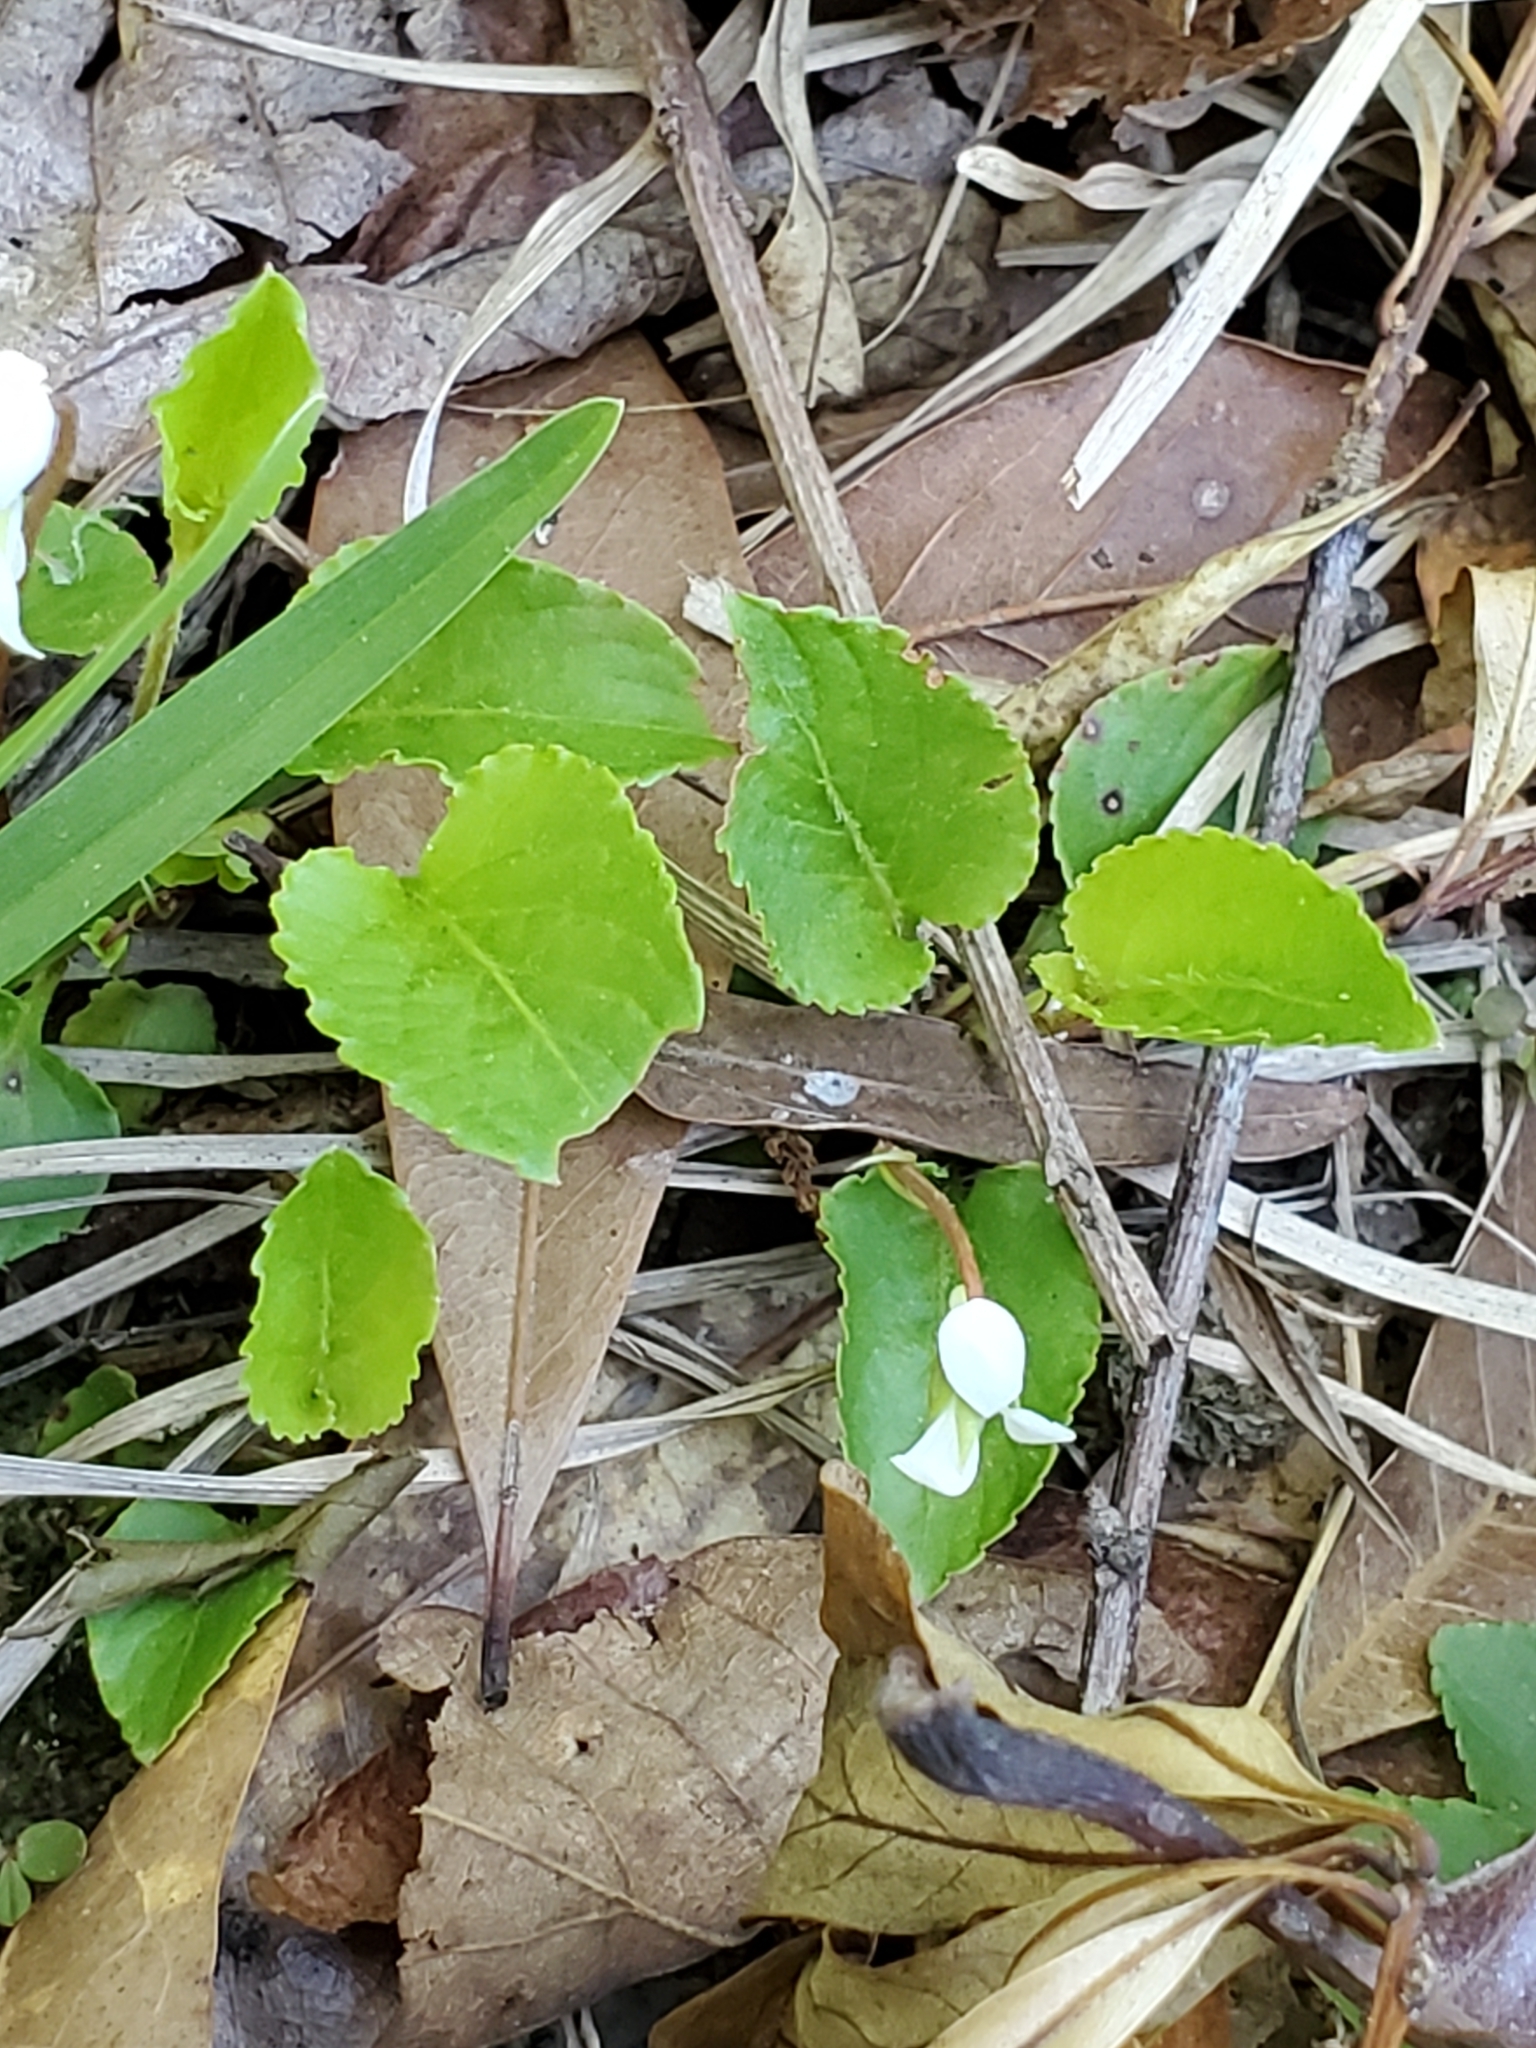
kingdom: Plantae
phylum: Tracheophyta
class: Magnoliopsida
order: Malpighiales
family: Violaceae
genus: Viola
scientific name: Viola lanceolata
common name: Bog white violet
